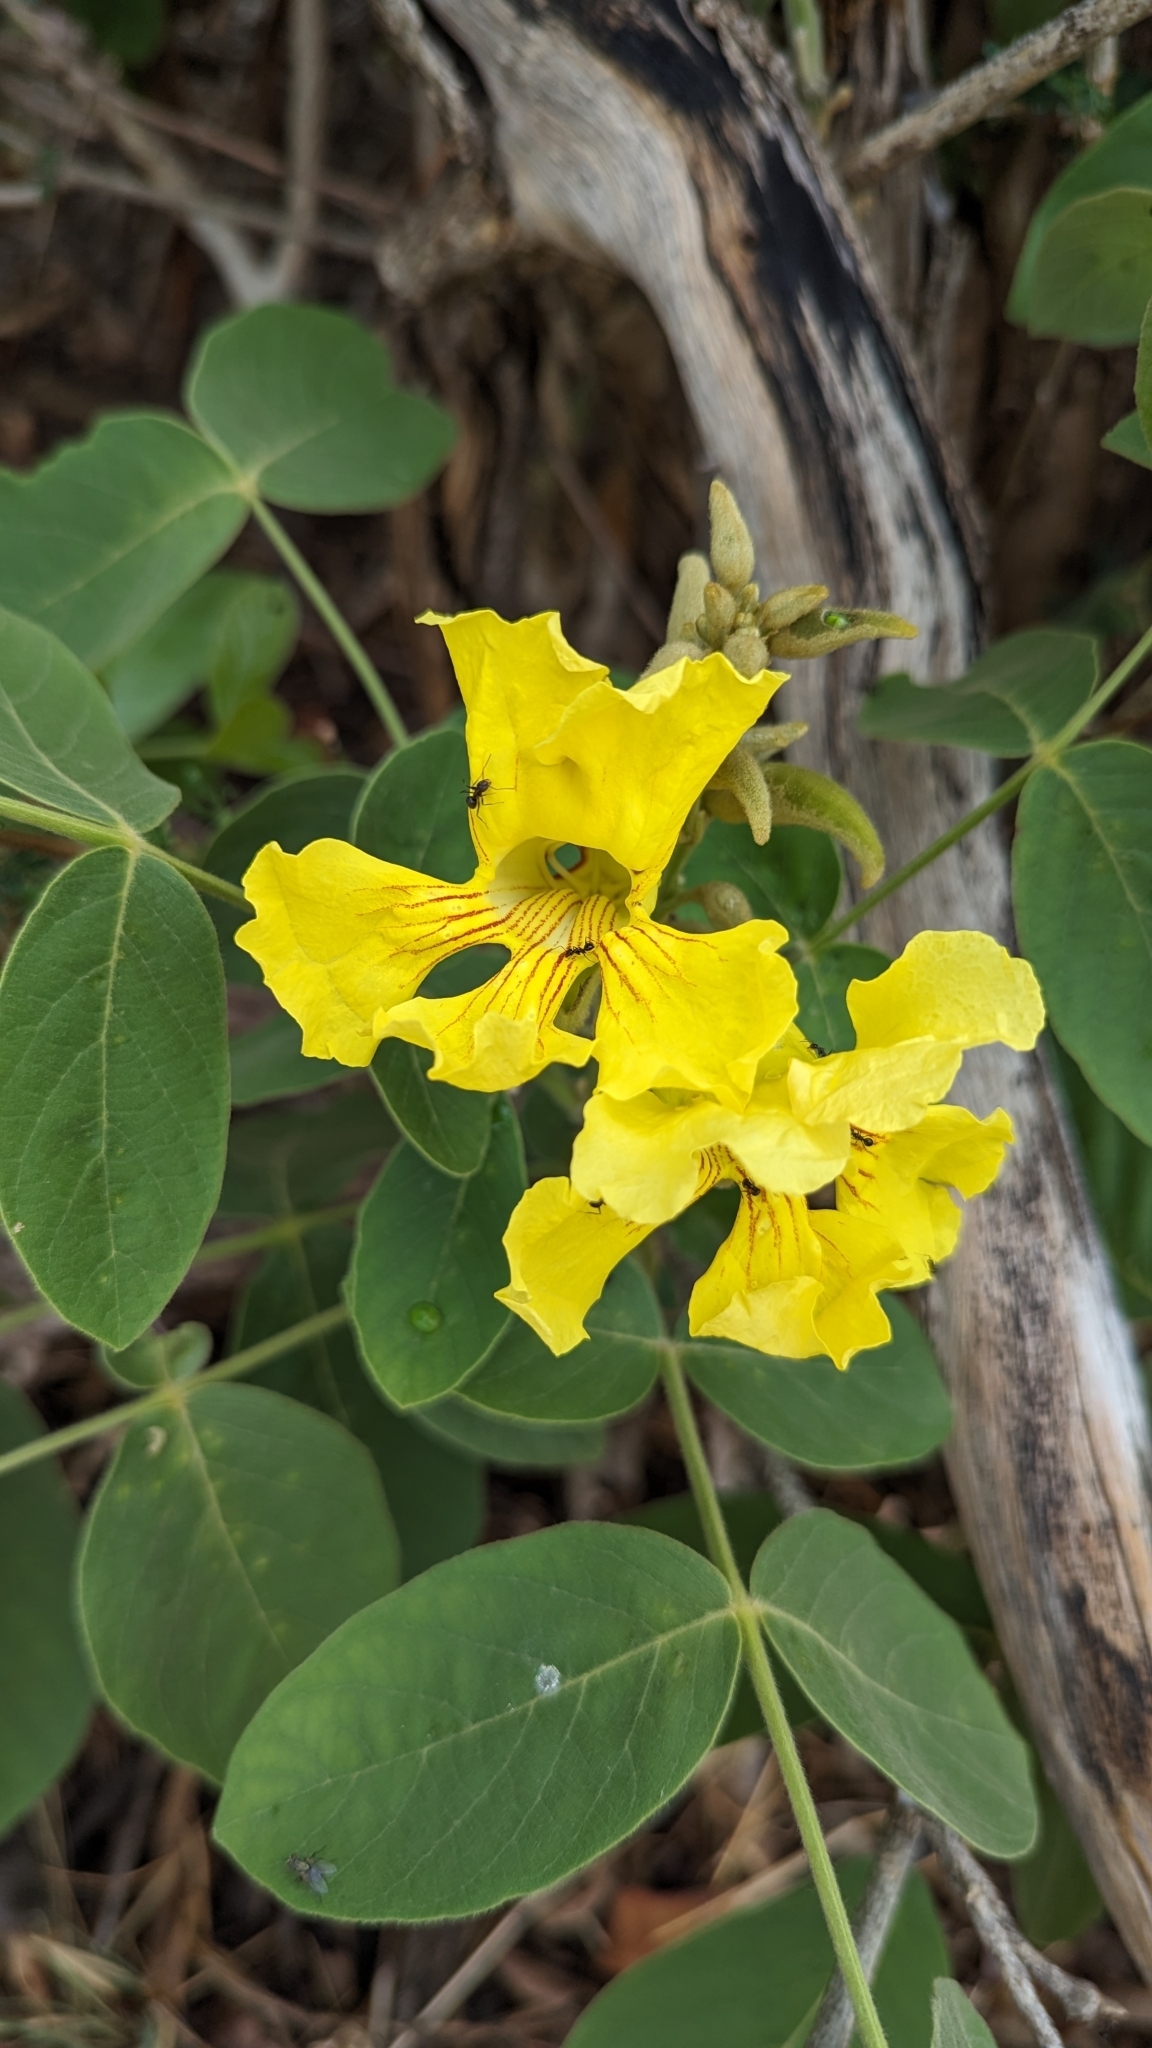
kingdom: Plantae
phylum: Tracheophyta
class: Magnoliopsida
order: Lamiales
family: Bignoniaceae
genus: Markhamia
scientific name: Markhamia obtusifolia
